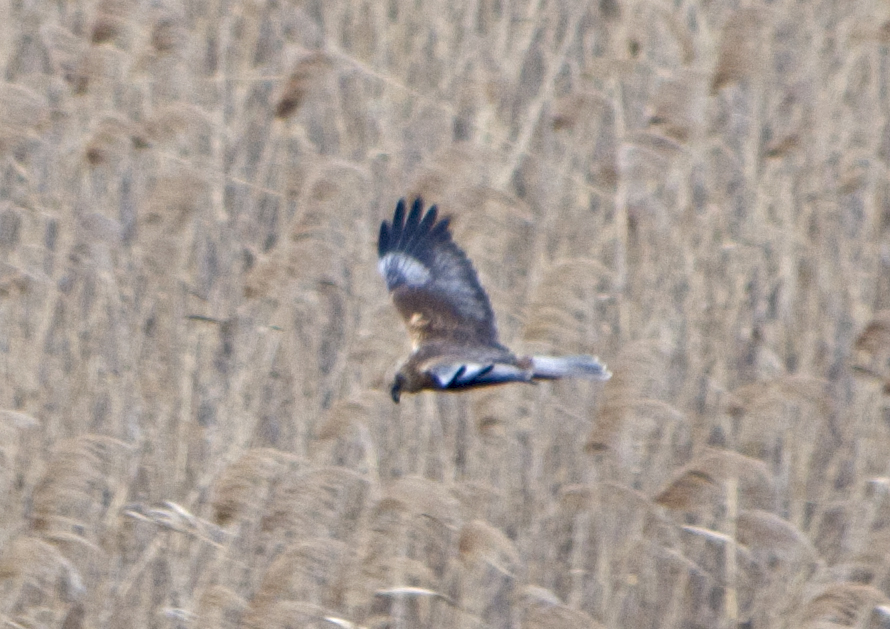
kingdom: Animalia
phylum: Chordata
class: Aves
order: Accipitriformes
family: Accipitridae
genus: Circus
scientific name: Circus aeruginosus
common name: Western marsh harrier
